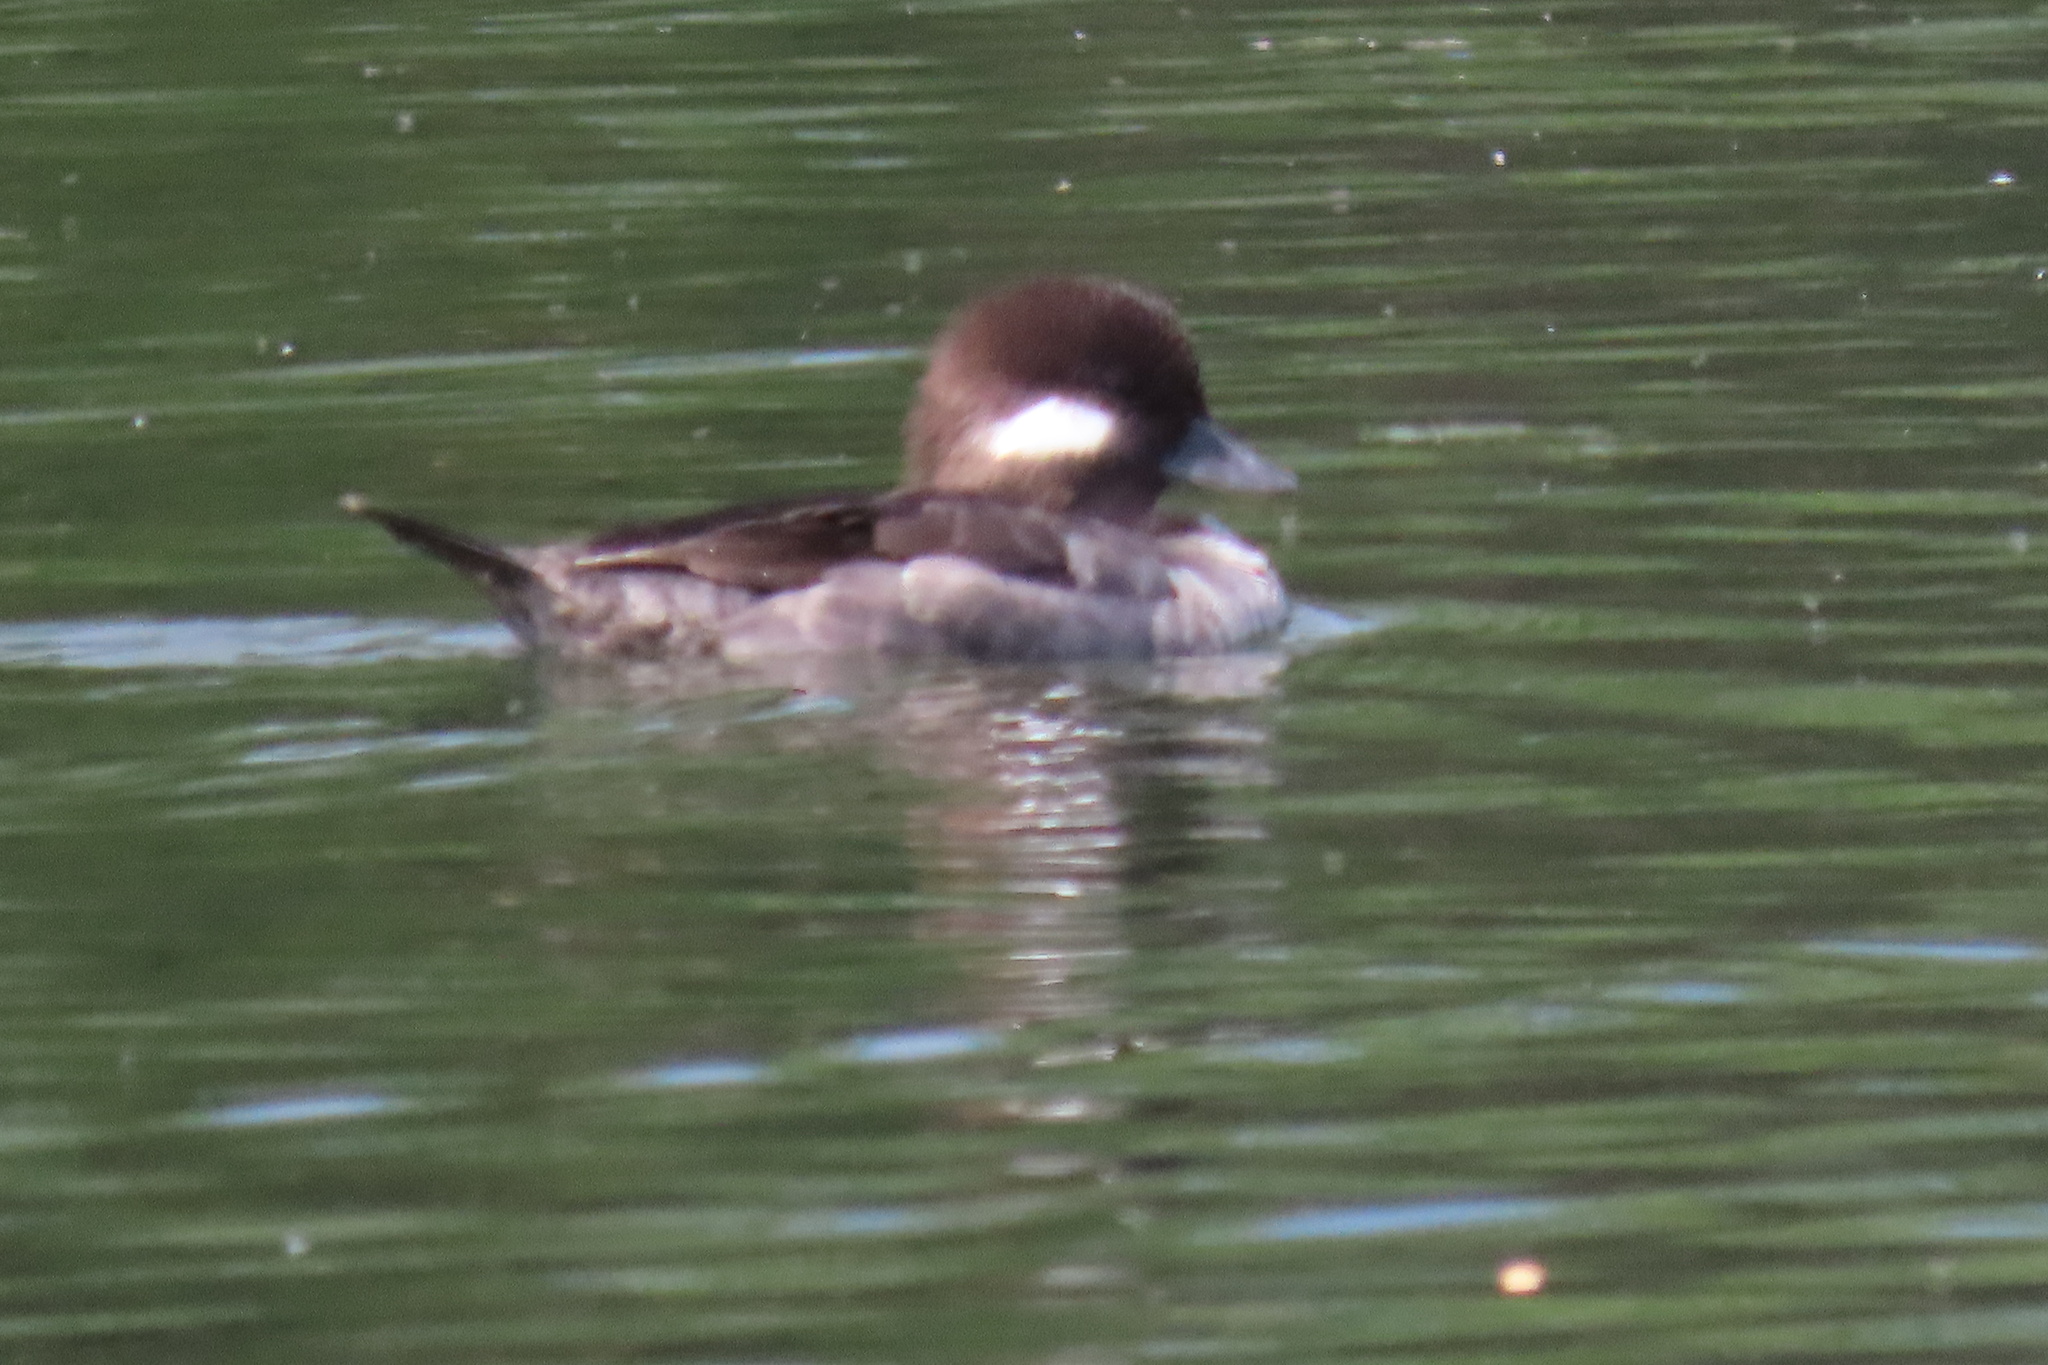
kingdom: Animalia
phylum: Chordata
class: Aves
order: Anseriformes
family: Anatidae
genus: Bucephala
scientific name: Bucephala albeola
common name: Bufflehead
